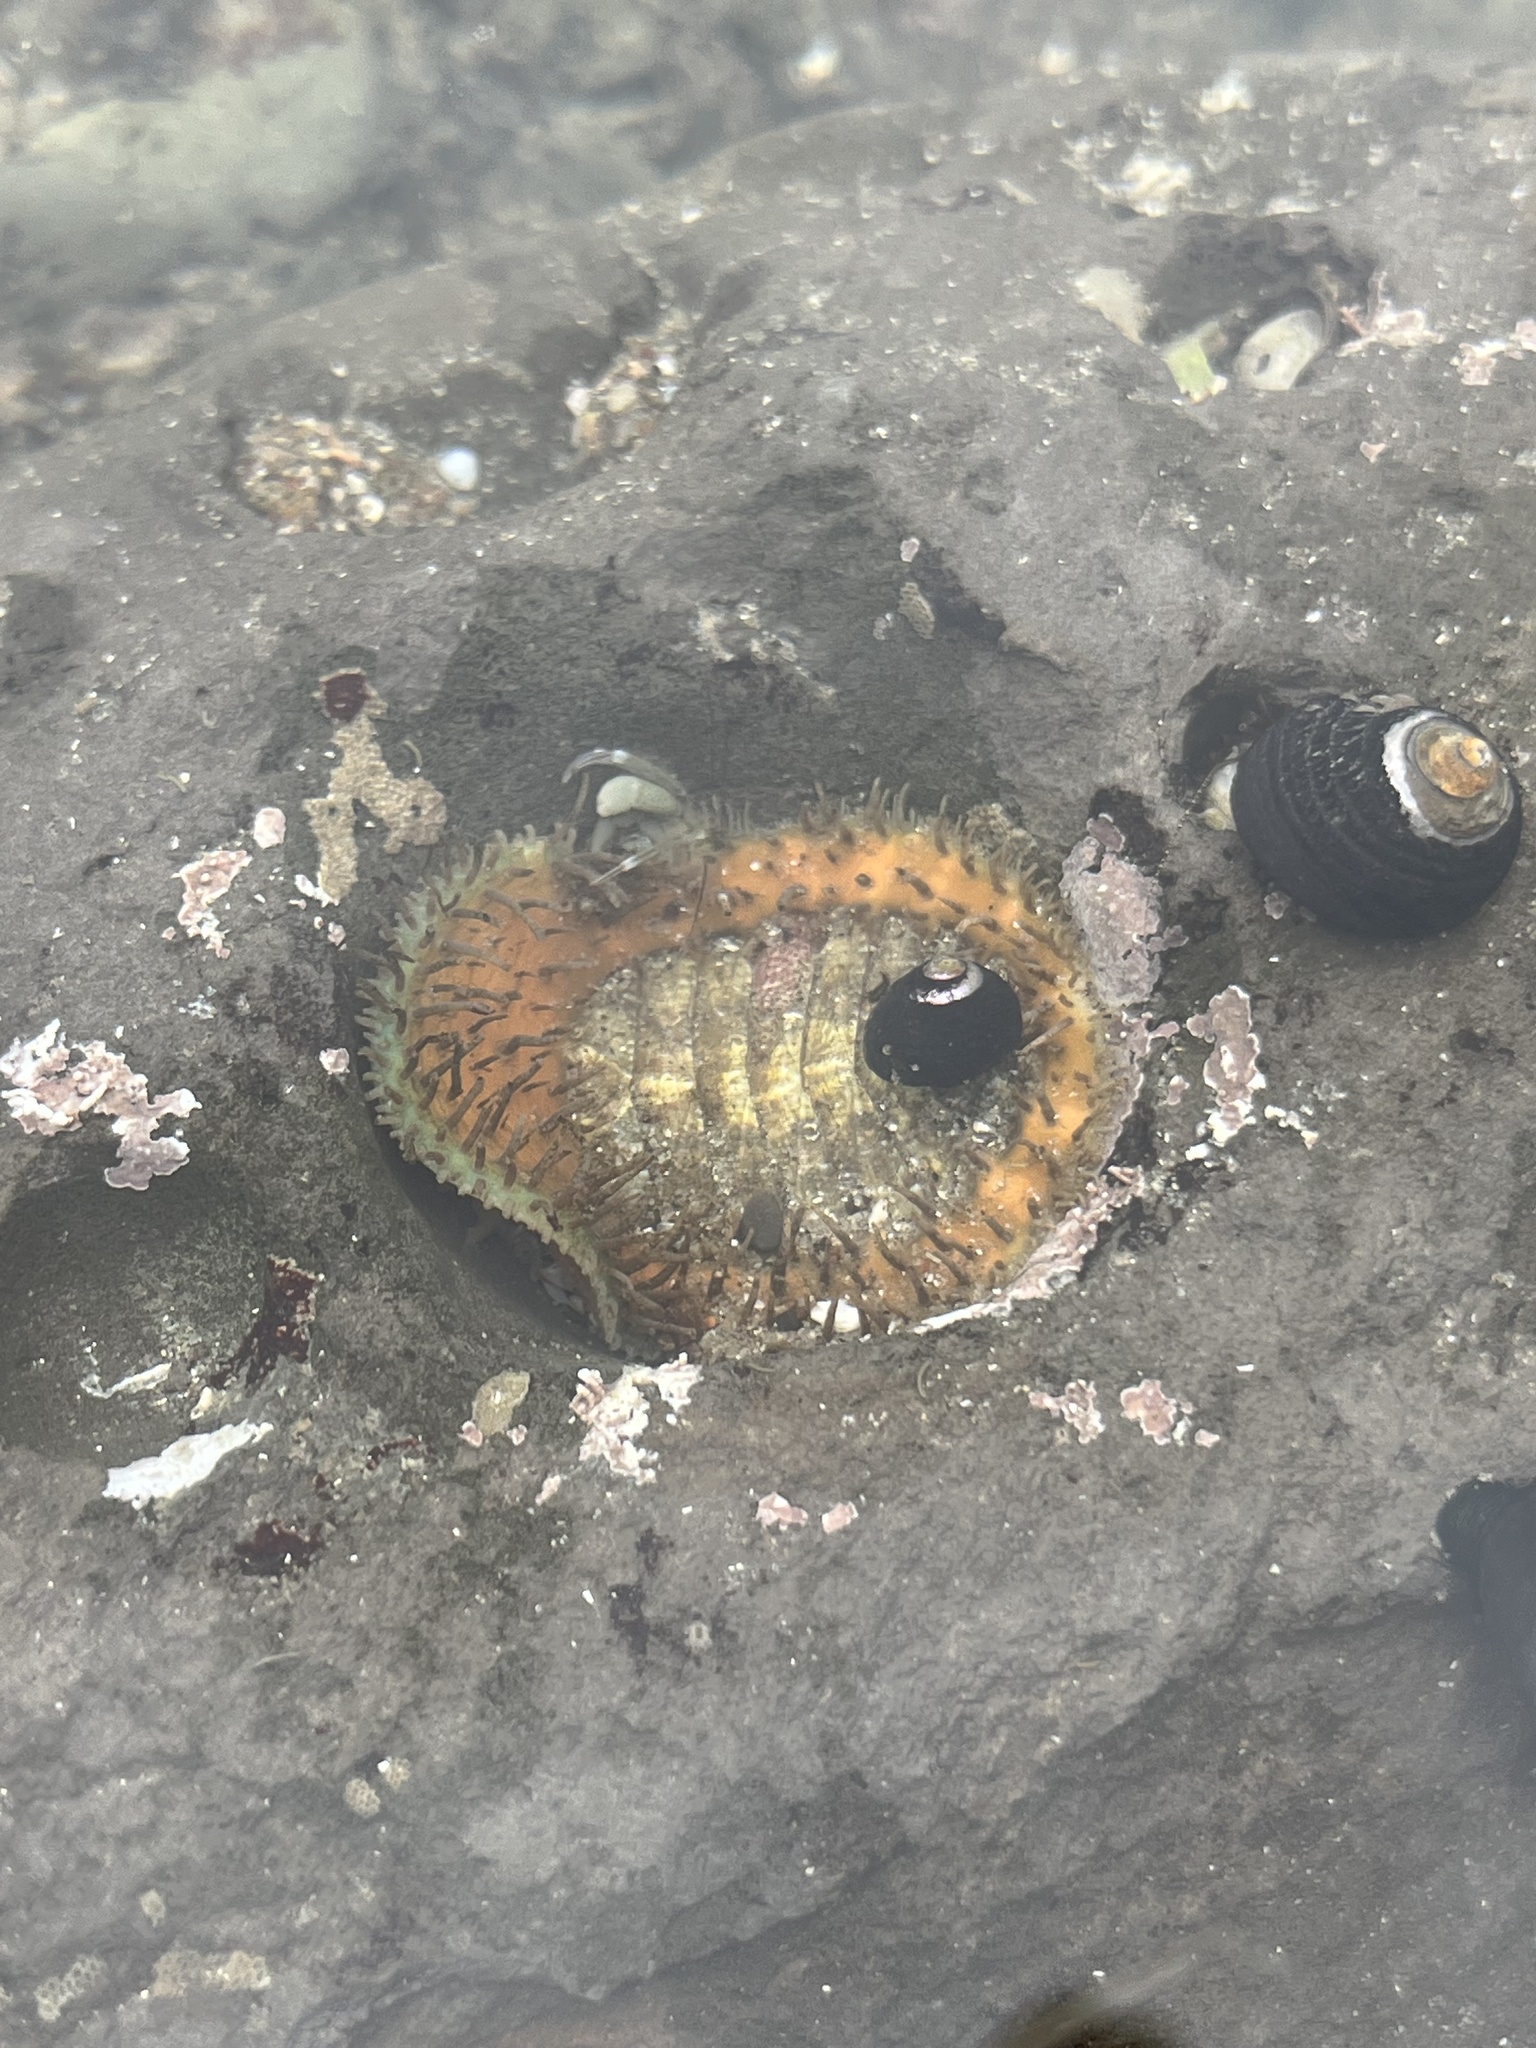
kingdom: Animalia
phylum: Mollusca
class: Polyplacophora
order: Chitonida
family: Mopaliidae
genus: Placiphorella
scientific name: Placiphorella velata
